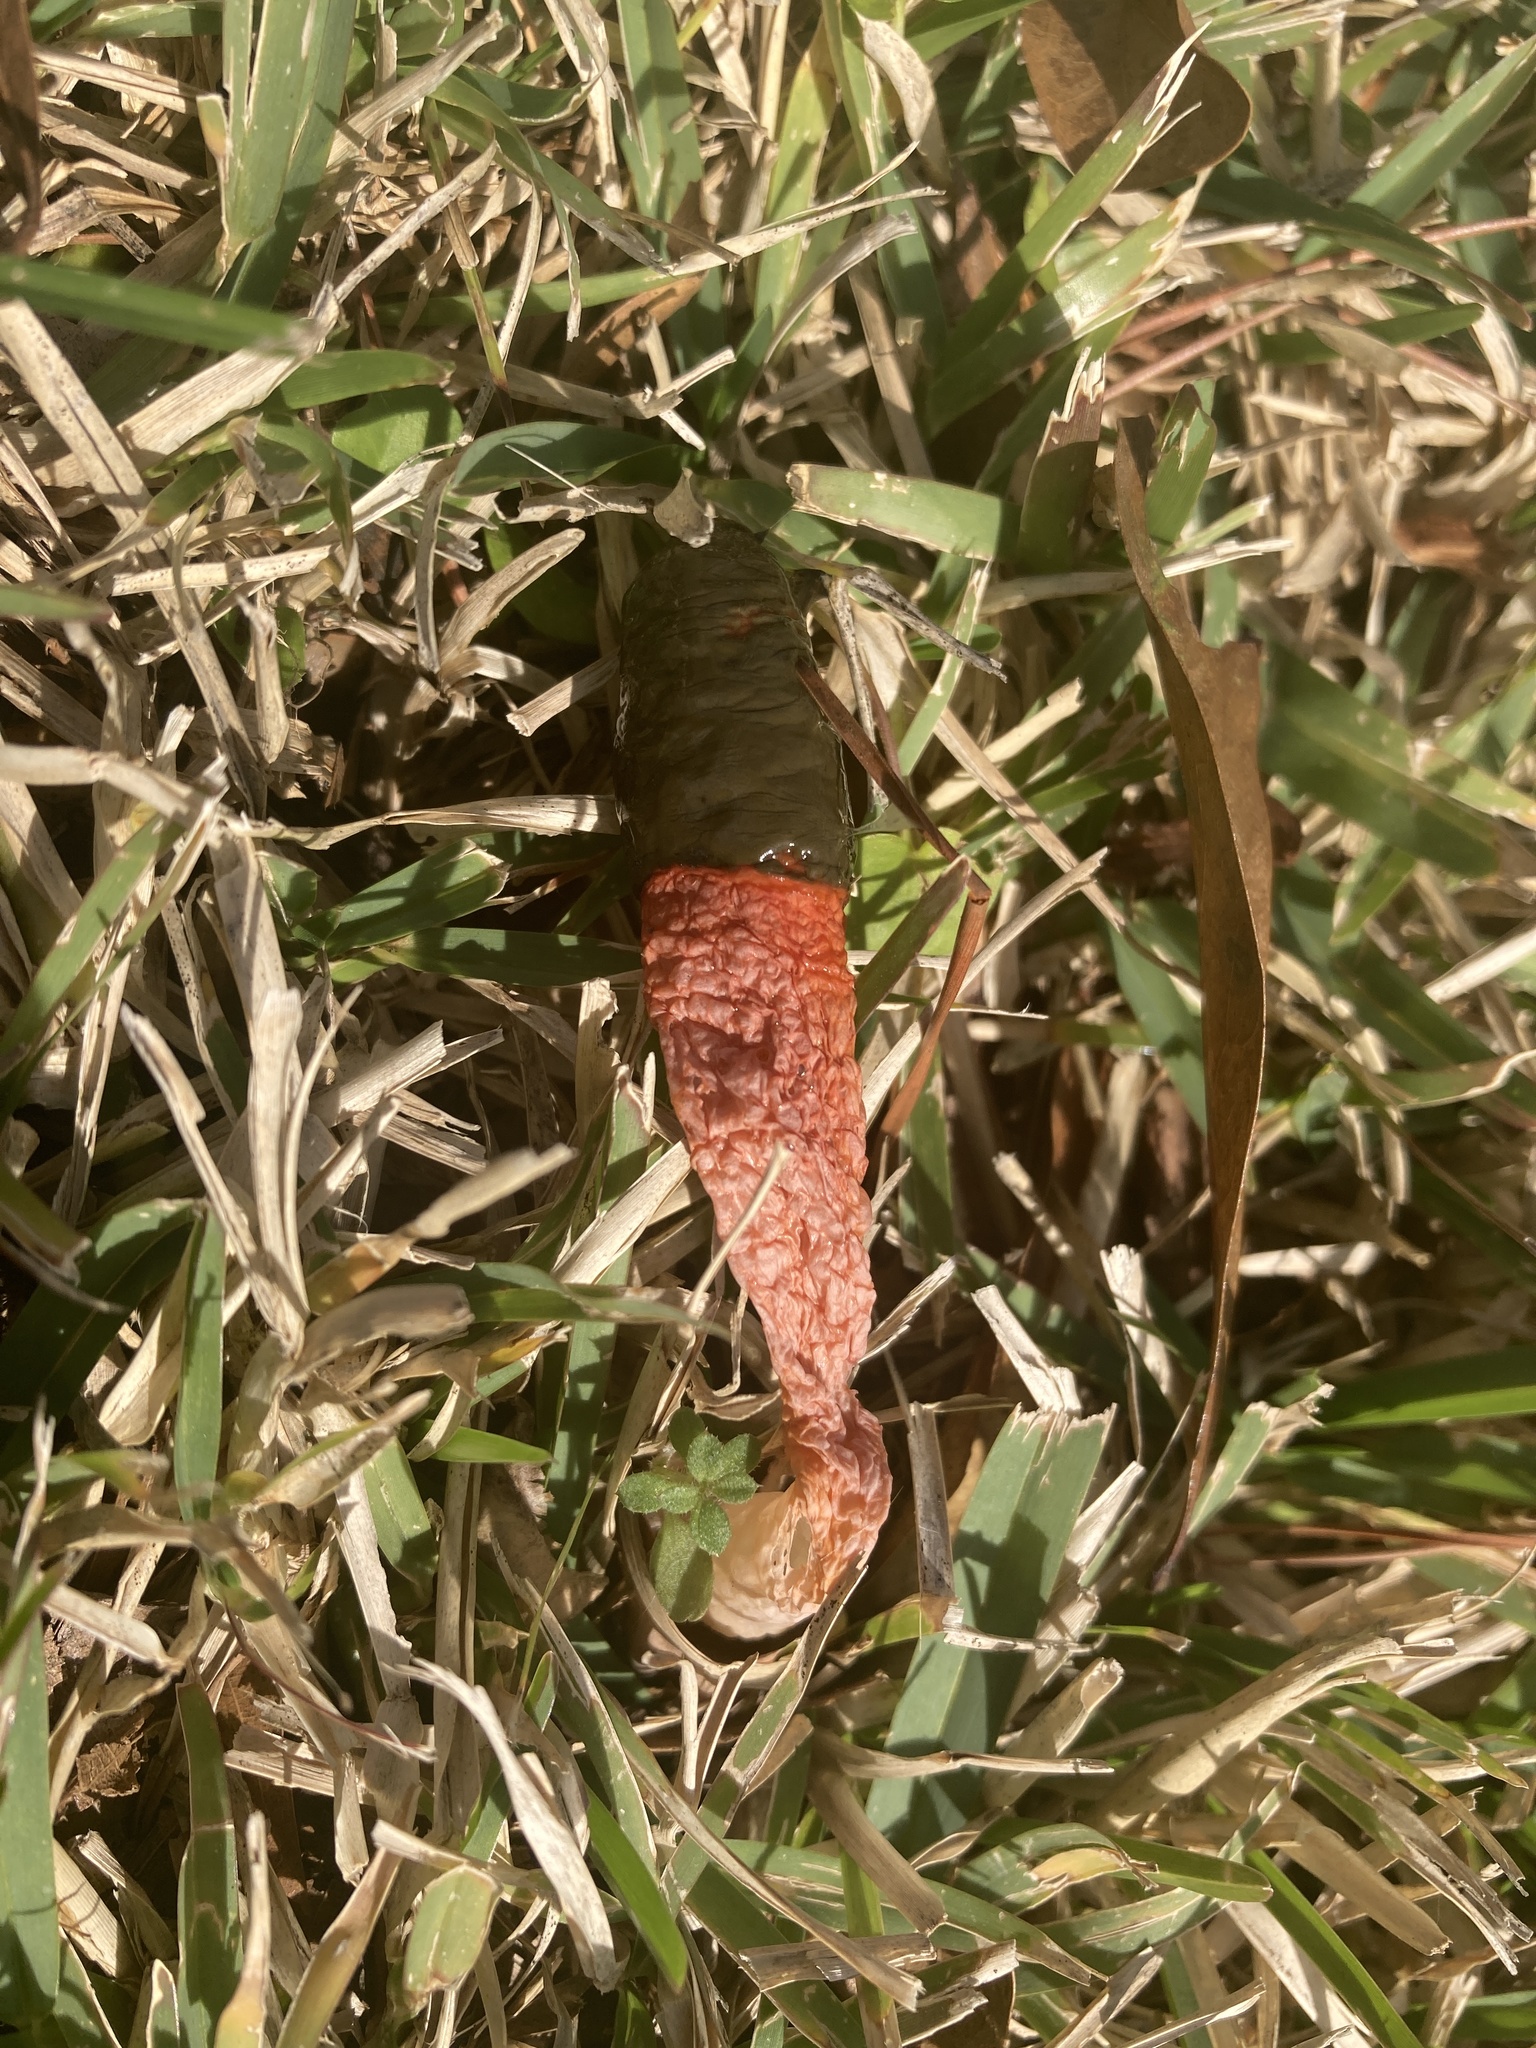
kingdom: Fungi
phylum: Basidiomycota
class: Agaricomycetes
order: Phallales
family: Phallaceae
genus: Mutinus
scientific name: Mutinus elegans
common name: Devil's dipstick
